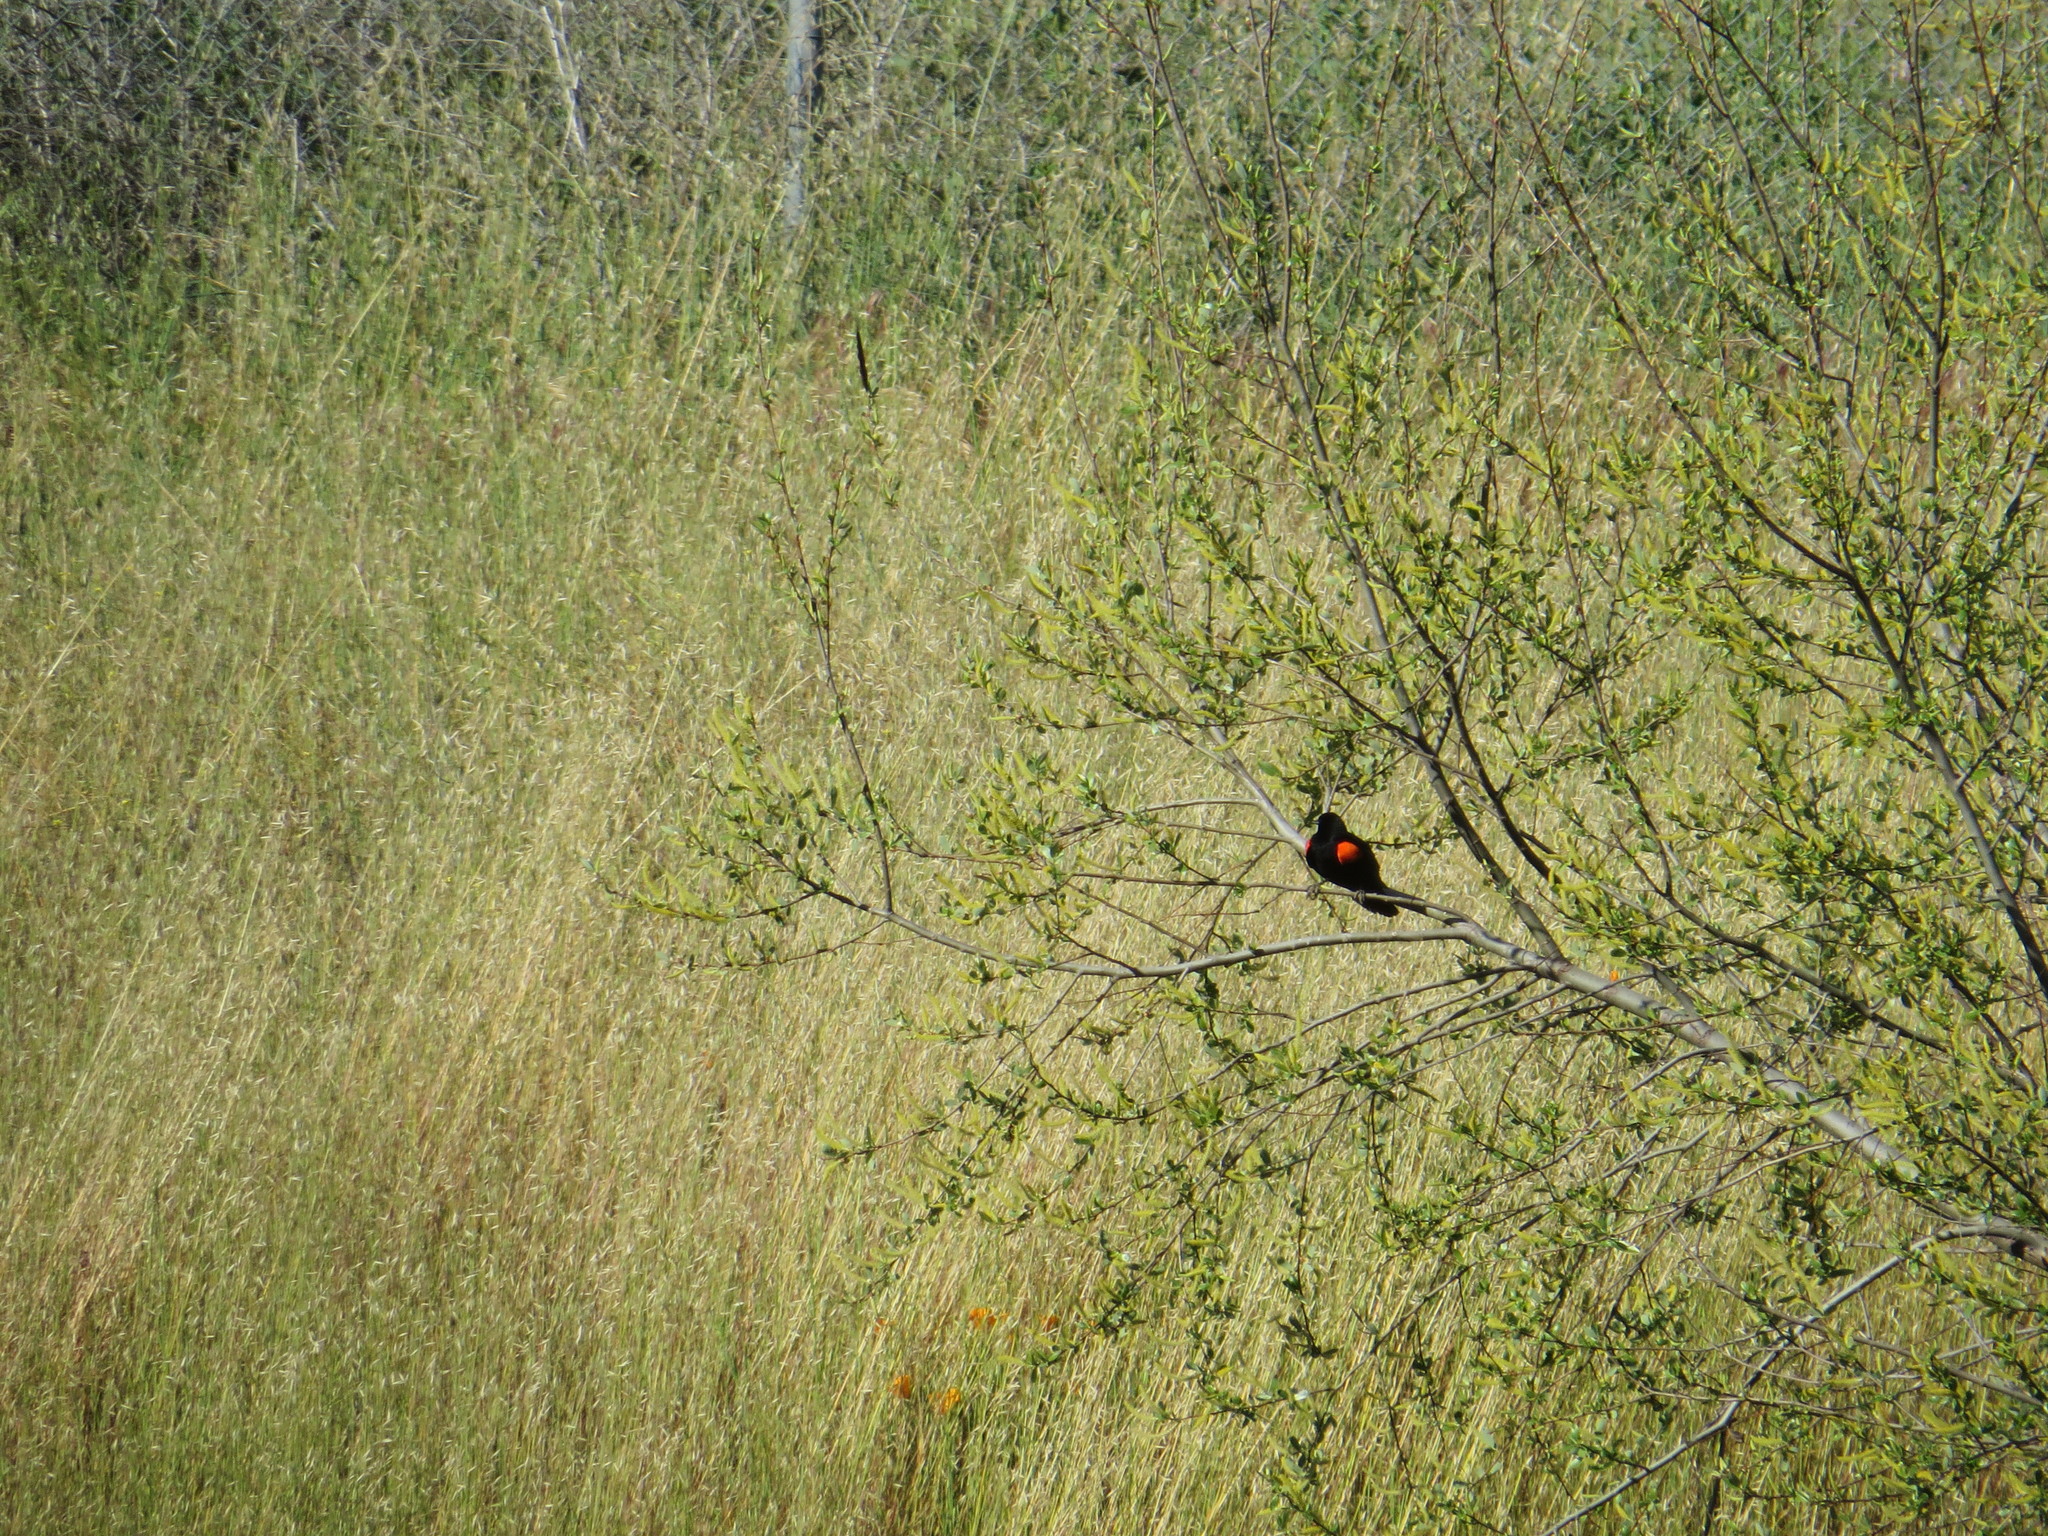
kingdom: Animalia
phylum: Chordata
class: Aves
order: Passeriformes
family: Icteridae
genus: Agelaius
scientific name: Agelaius phoeniceus
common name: Red-winged blackbird
